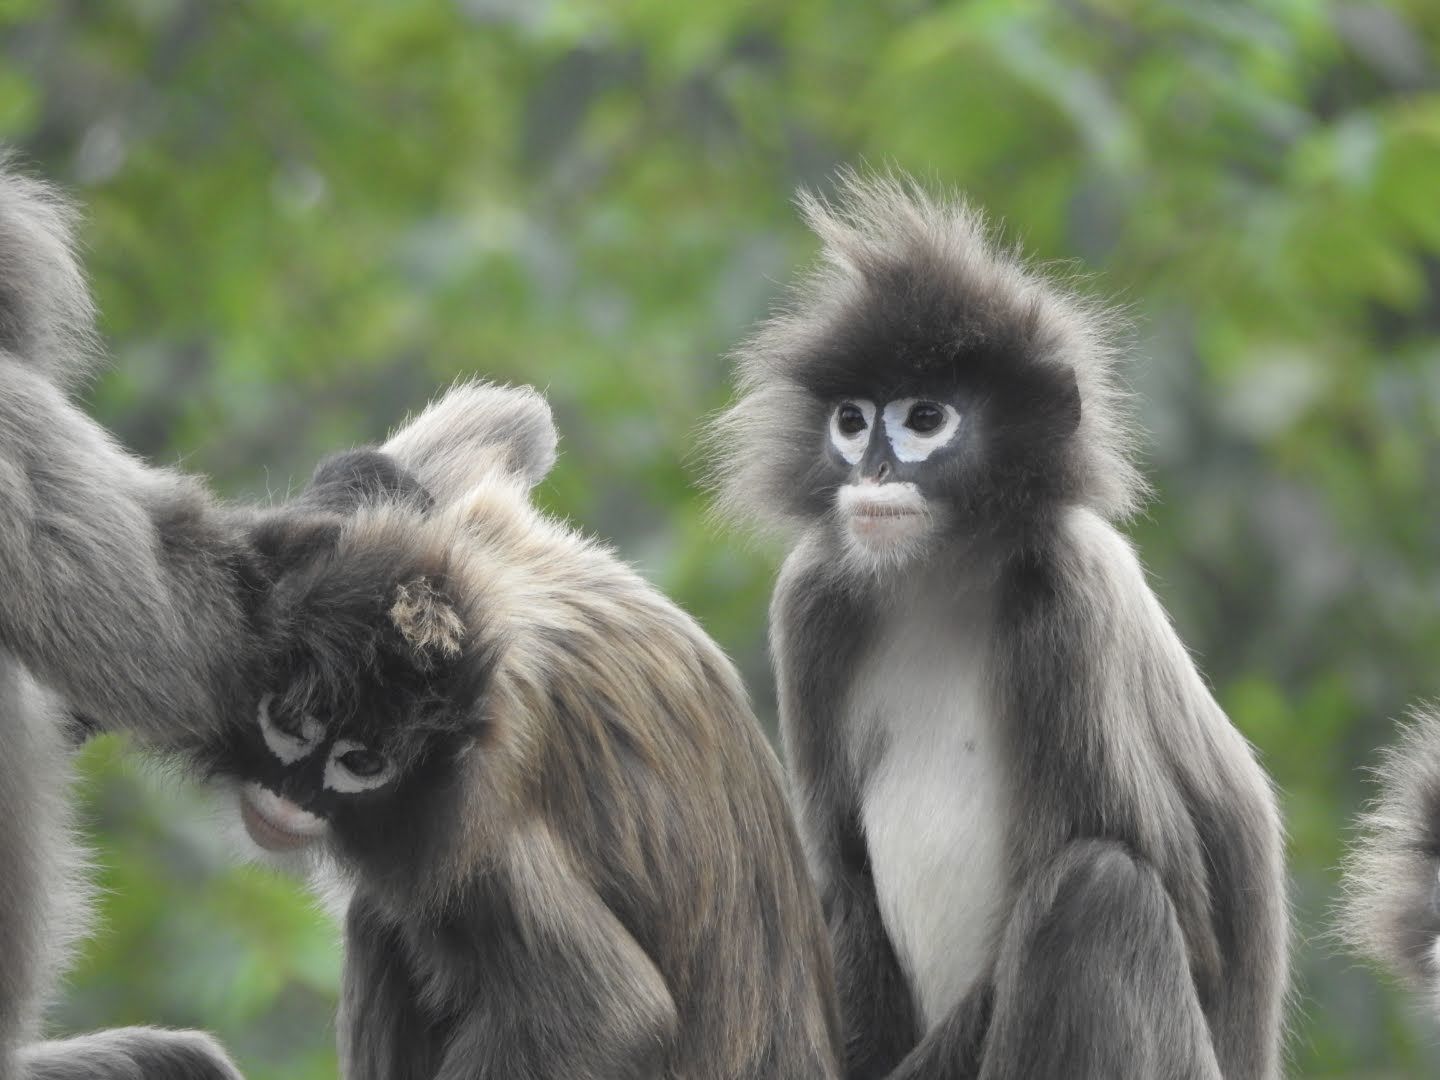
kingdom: Animalia
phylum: Chordata
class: Mammalia
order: Primates
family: Cercopithecidae
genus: Trachypithecus
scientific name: Trachypithecus phayrei
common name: Phayre's leaf monkey
